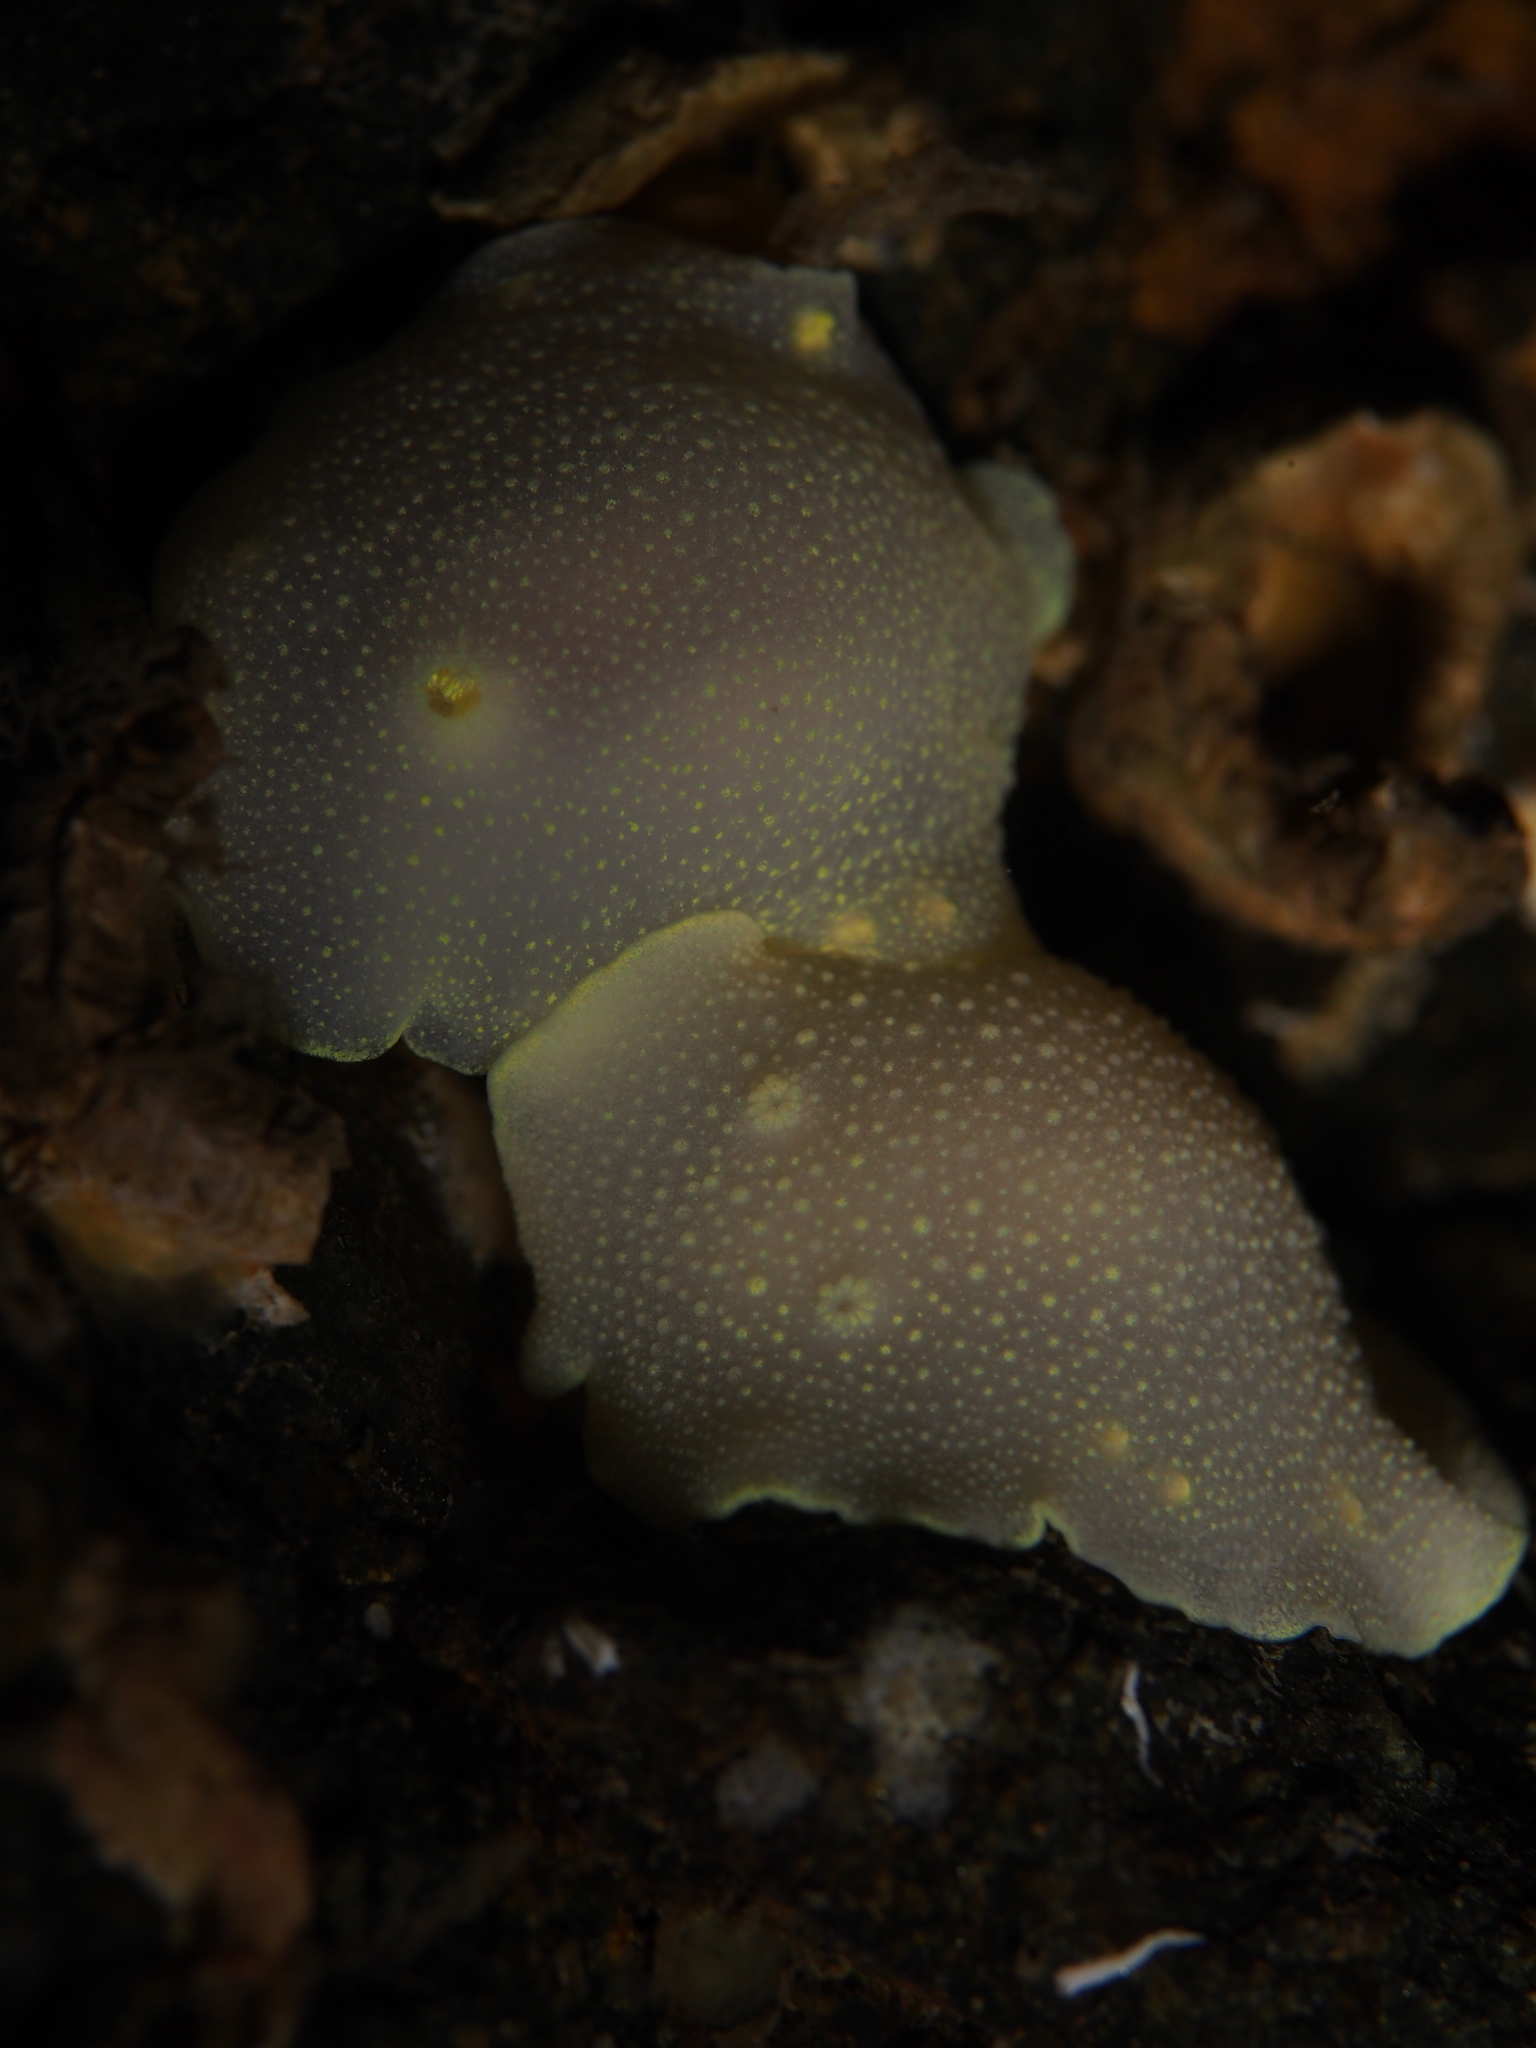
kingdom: Animalia
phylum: Mollusca
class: Gastropoda
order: Nudibranchia
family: Cadlinidae
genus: Cadlina
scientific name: Cadlina laevis
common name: White atlantic cadlina
